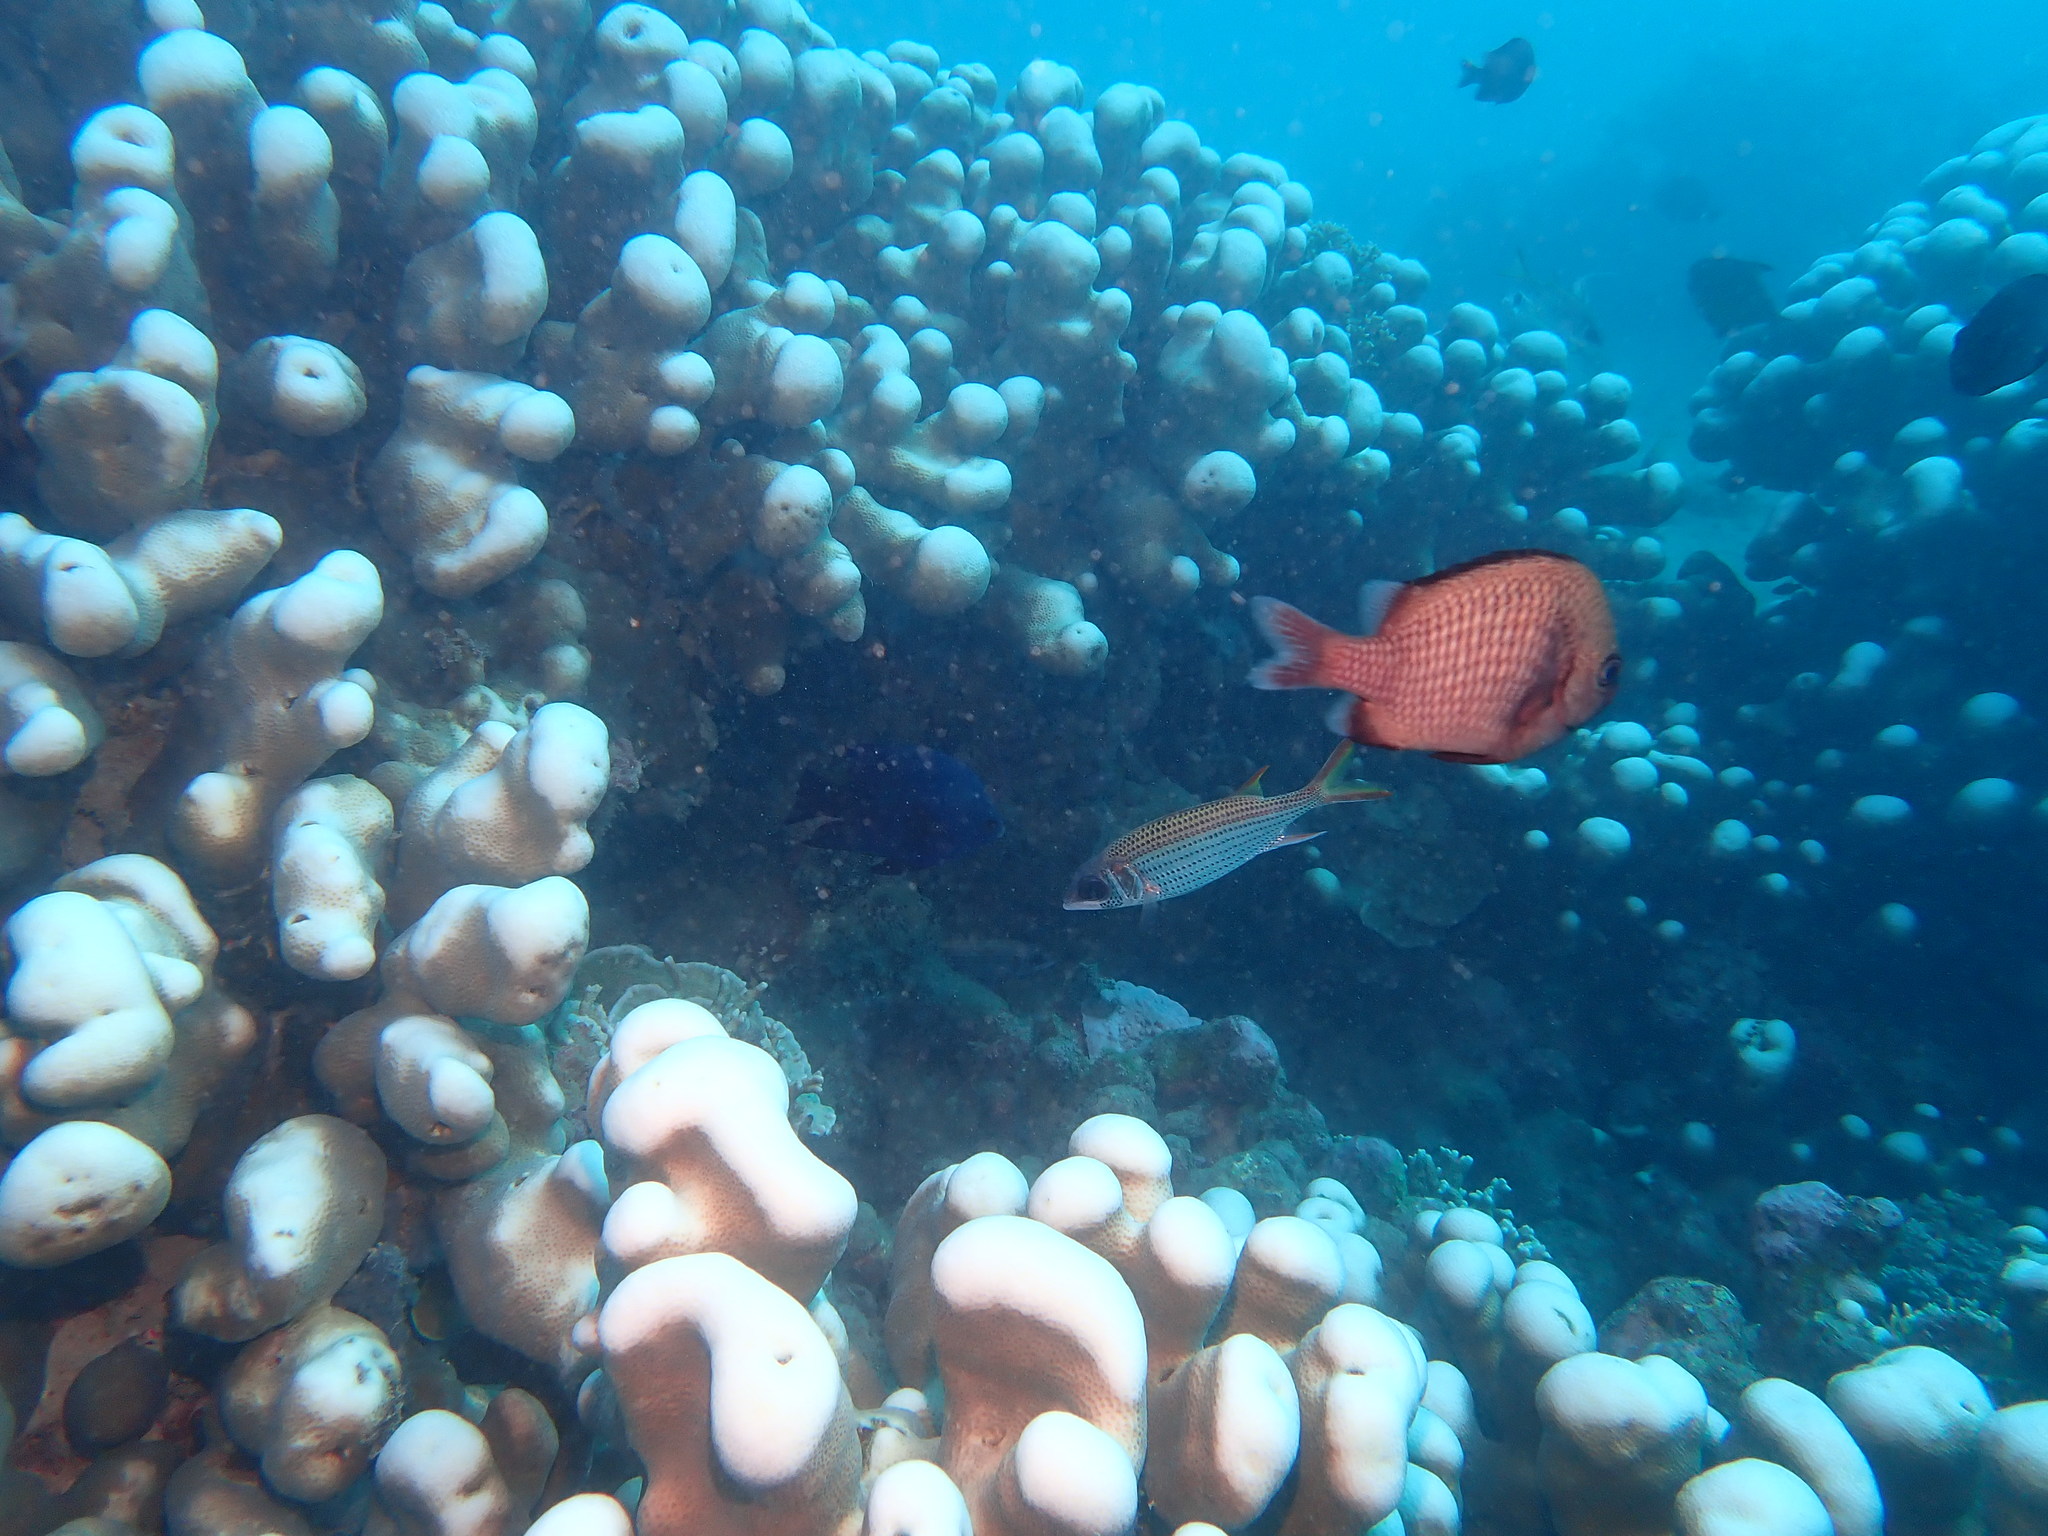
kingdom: Animalia
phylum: Cnidaria
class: Anthozoa
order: Scleractinia
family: Agariciidae
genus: Pavona
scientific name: Pavona clavus
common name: Leaf coral
